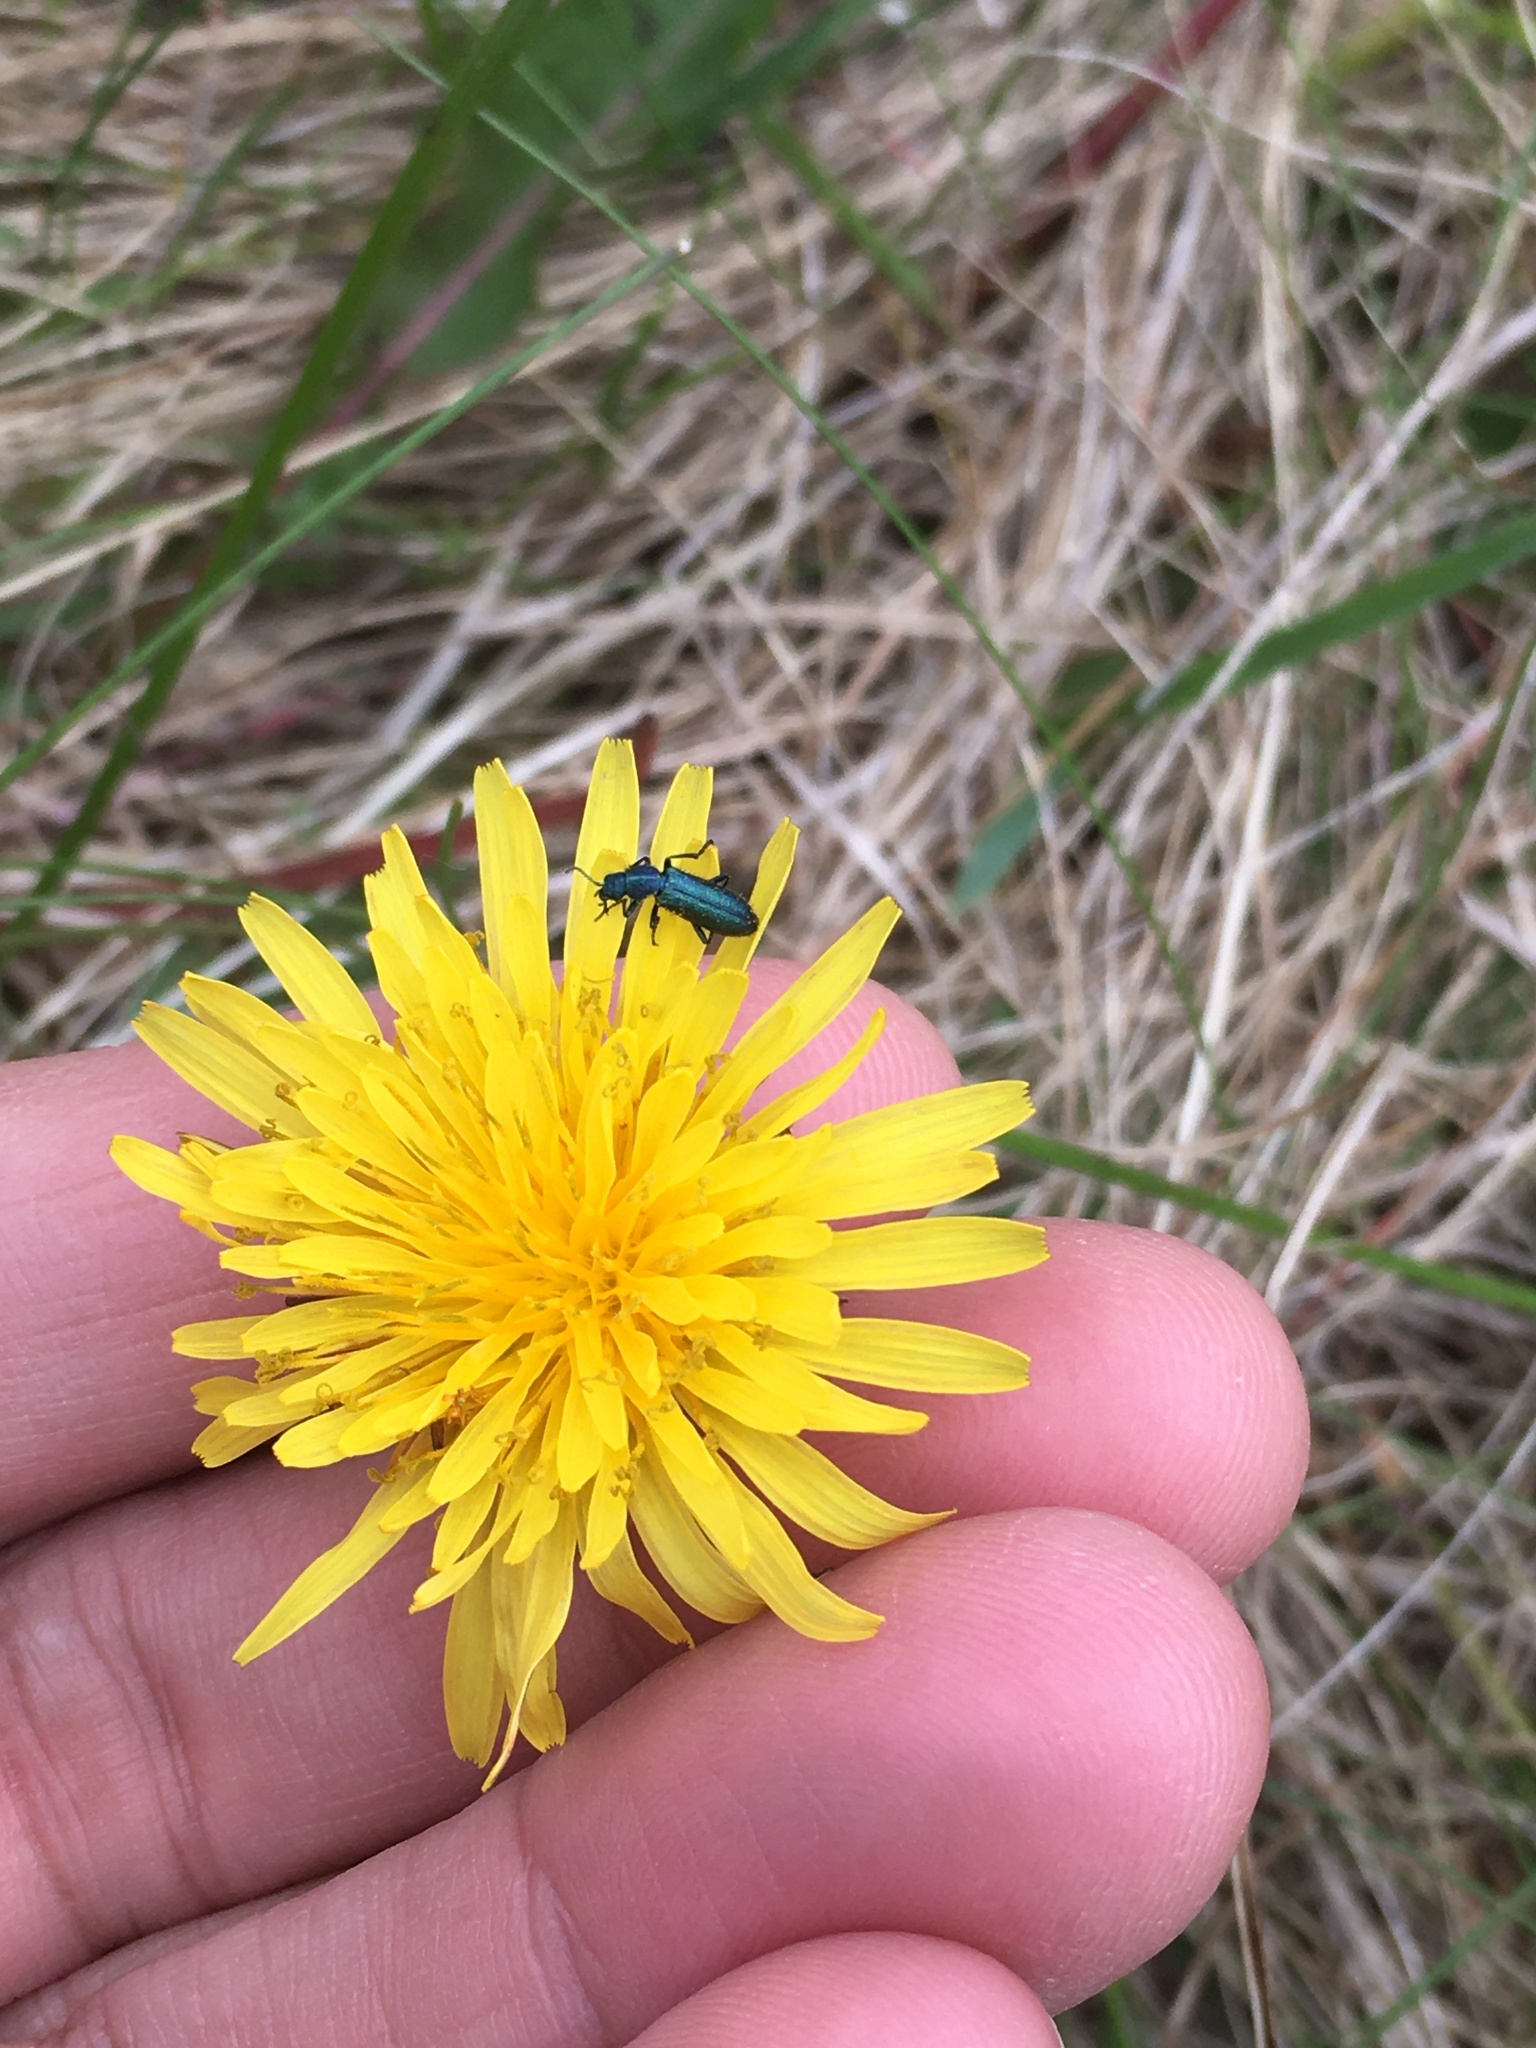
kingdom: Animalia
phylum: Arthropoda
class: Insecta
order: Coleoptera
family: Dasytidae
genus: Psilothrix
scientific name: Psilothrix viridicoerulea
